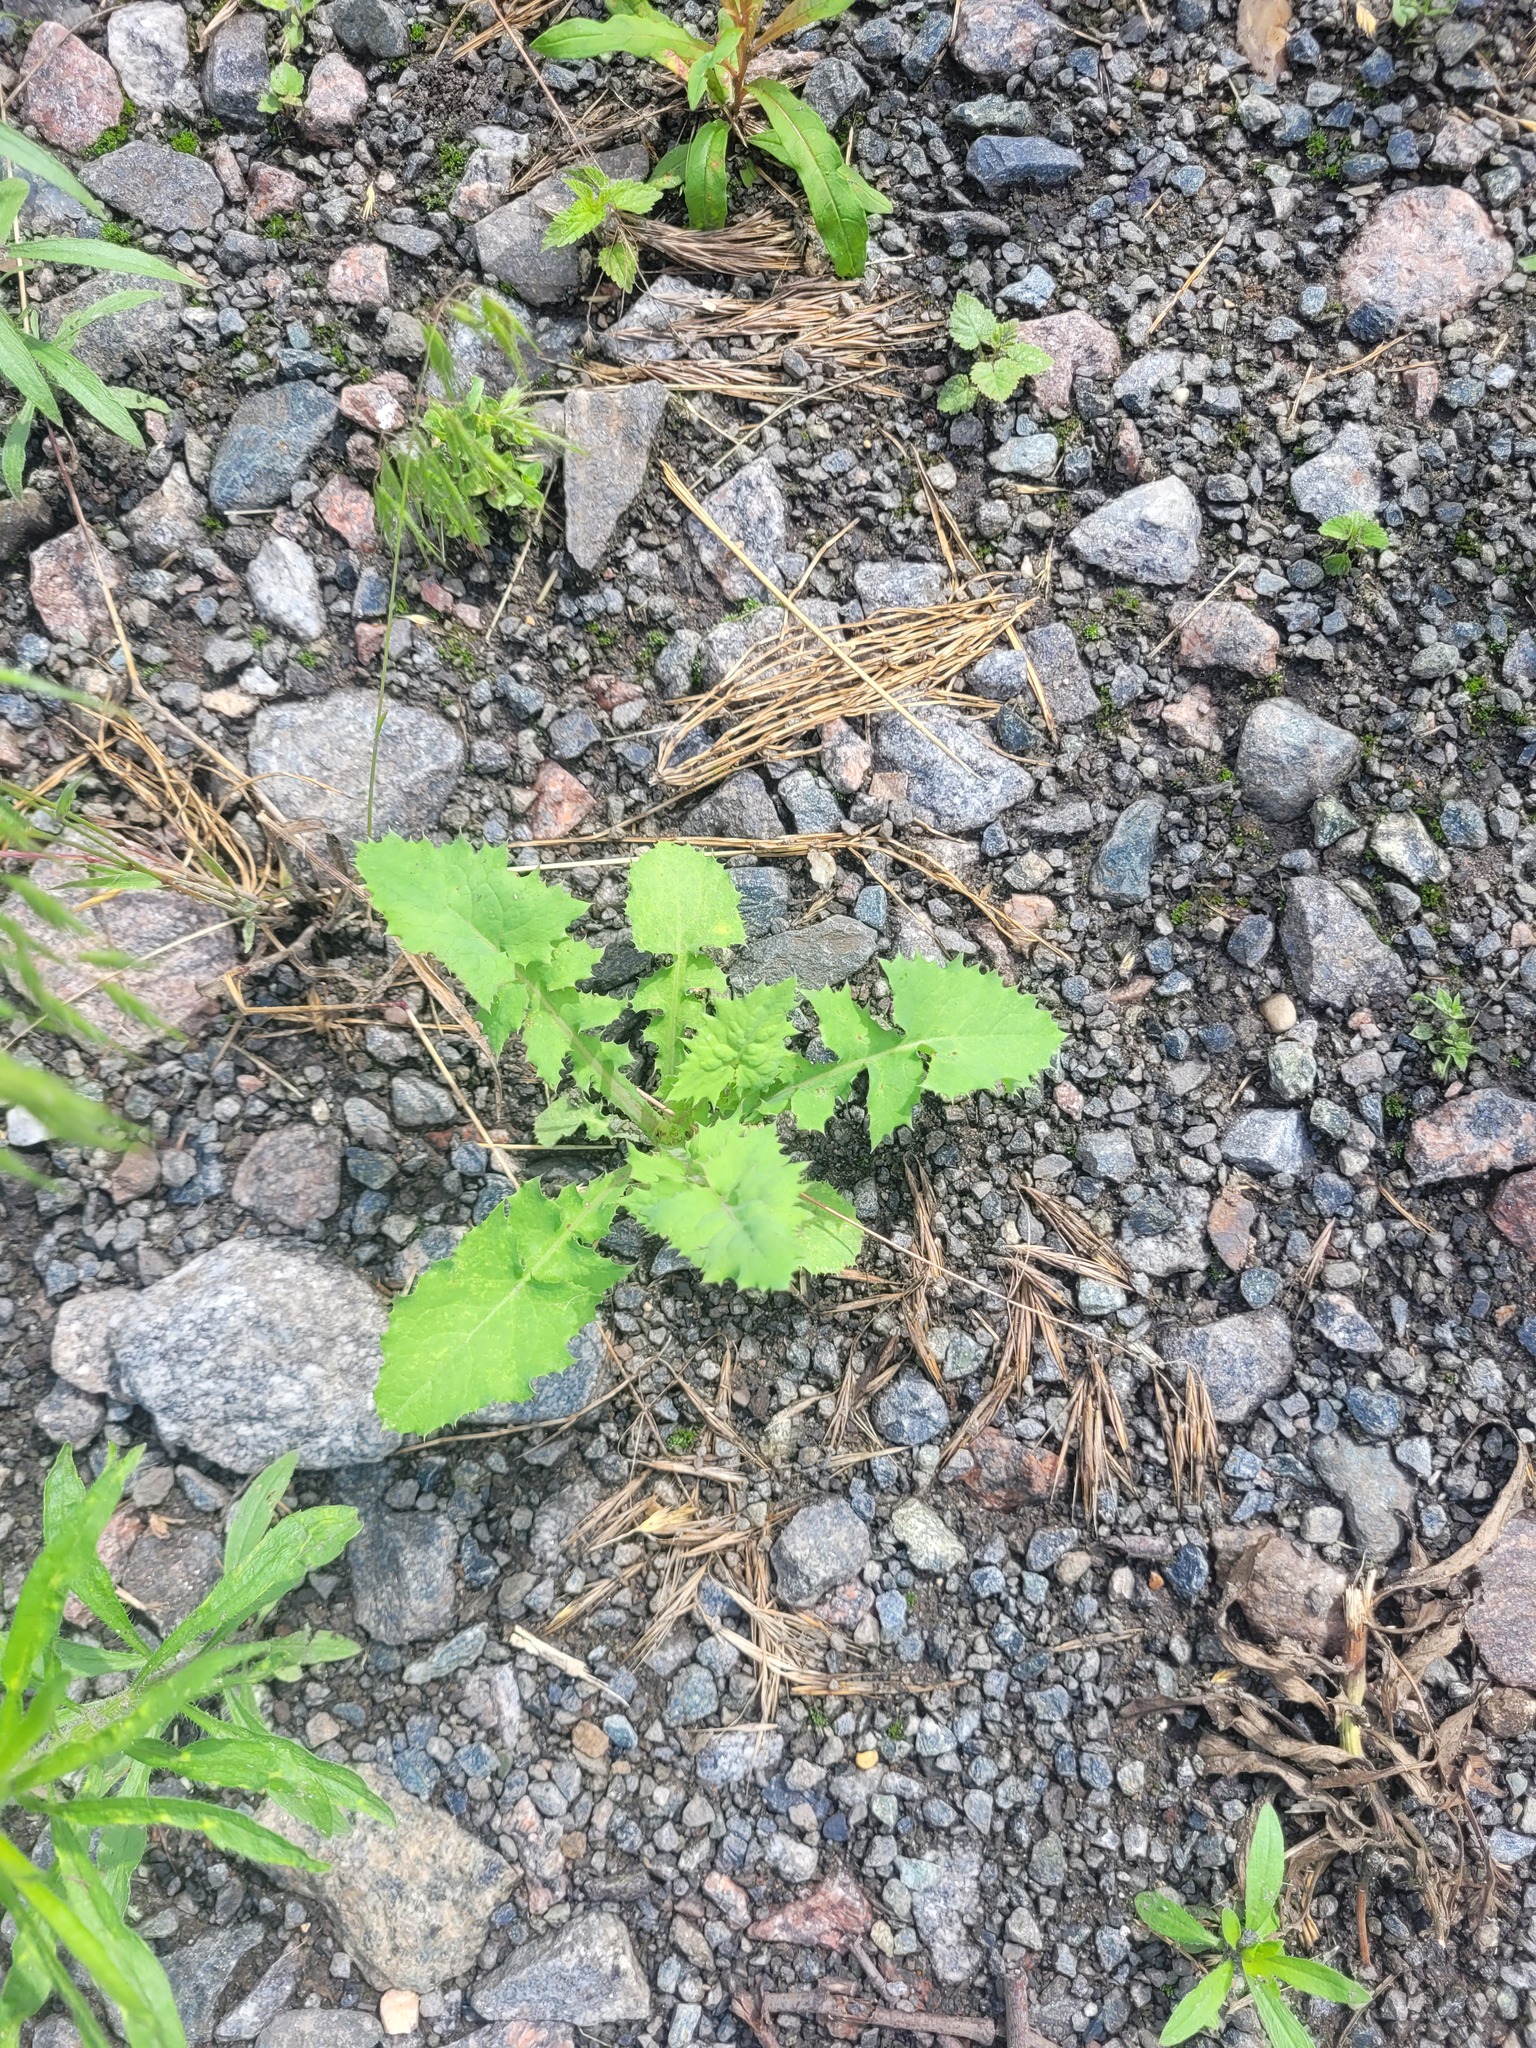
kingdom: Plantae
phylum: Tracheophyta
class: Magnoliopsida
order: Asterales
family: Asteraceae
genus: Sonchus
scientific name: Sonchus oleraceus
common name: Common sowthistle
